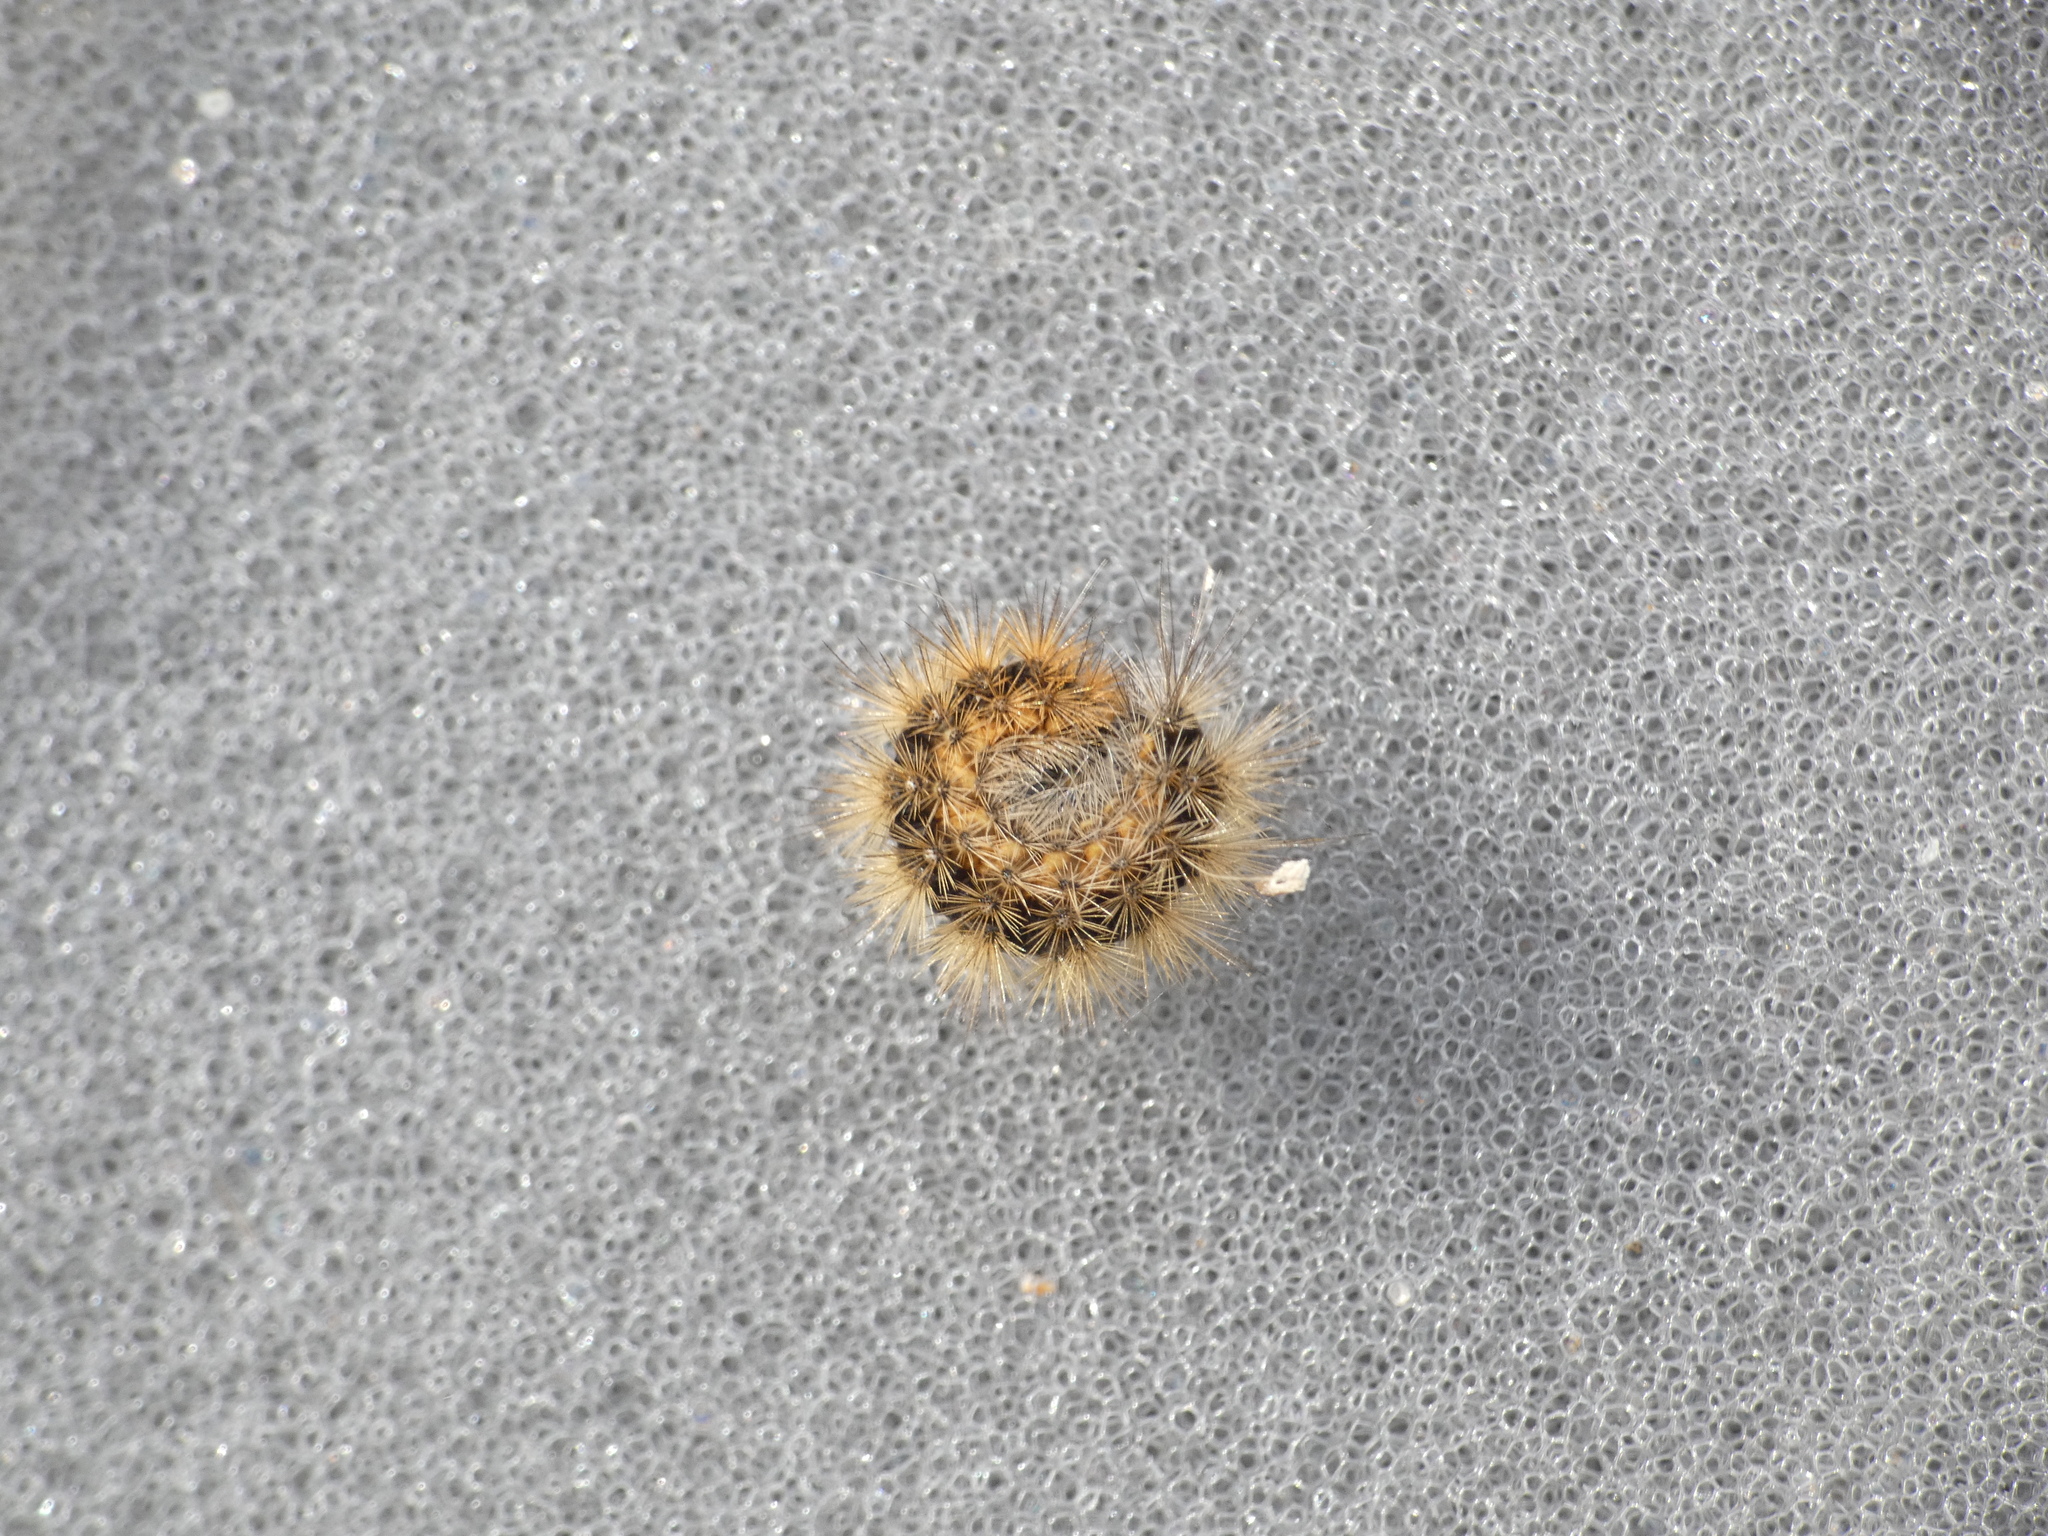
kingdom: Animalia
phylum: Arthropoda
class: Insecta
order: Lepidoptera
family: Erebidae
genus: Phragmatobia
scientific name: Phragmatobia fuliginosa
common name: Ruby tiger
